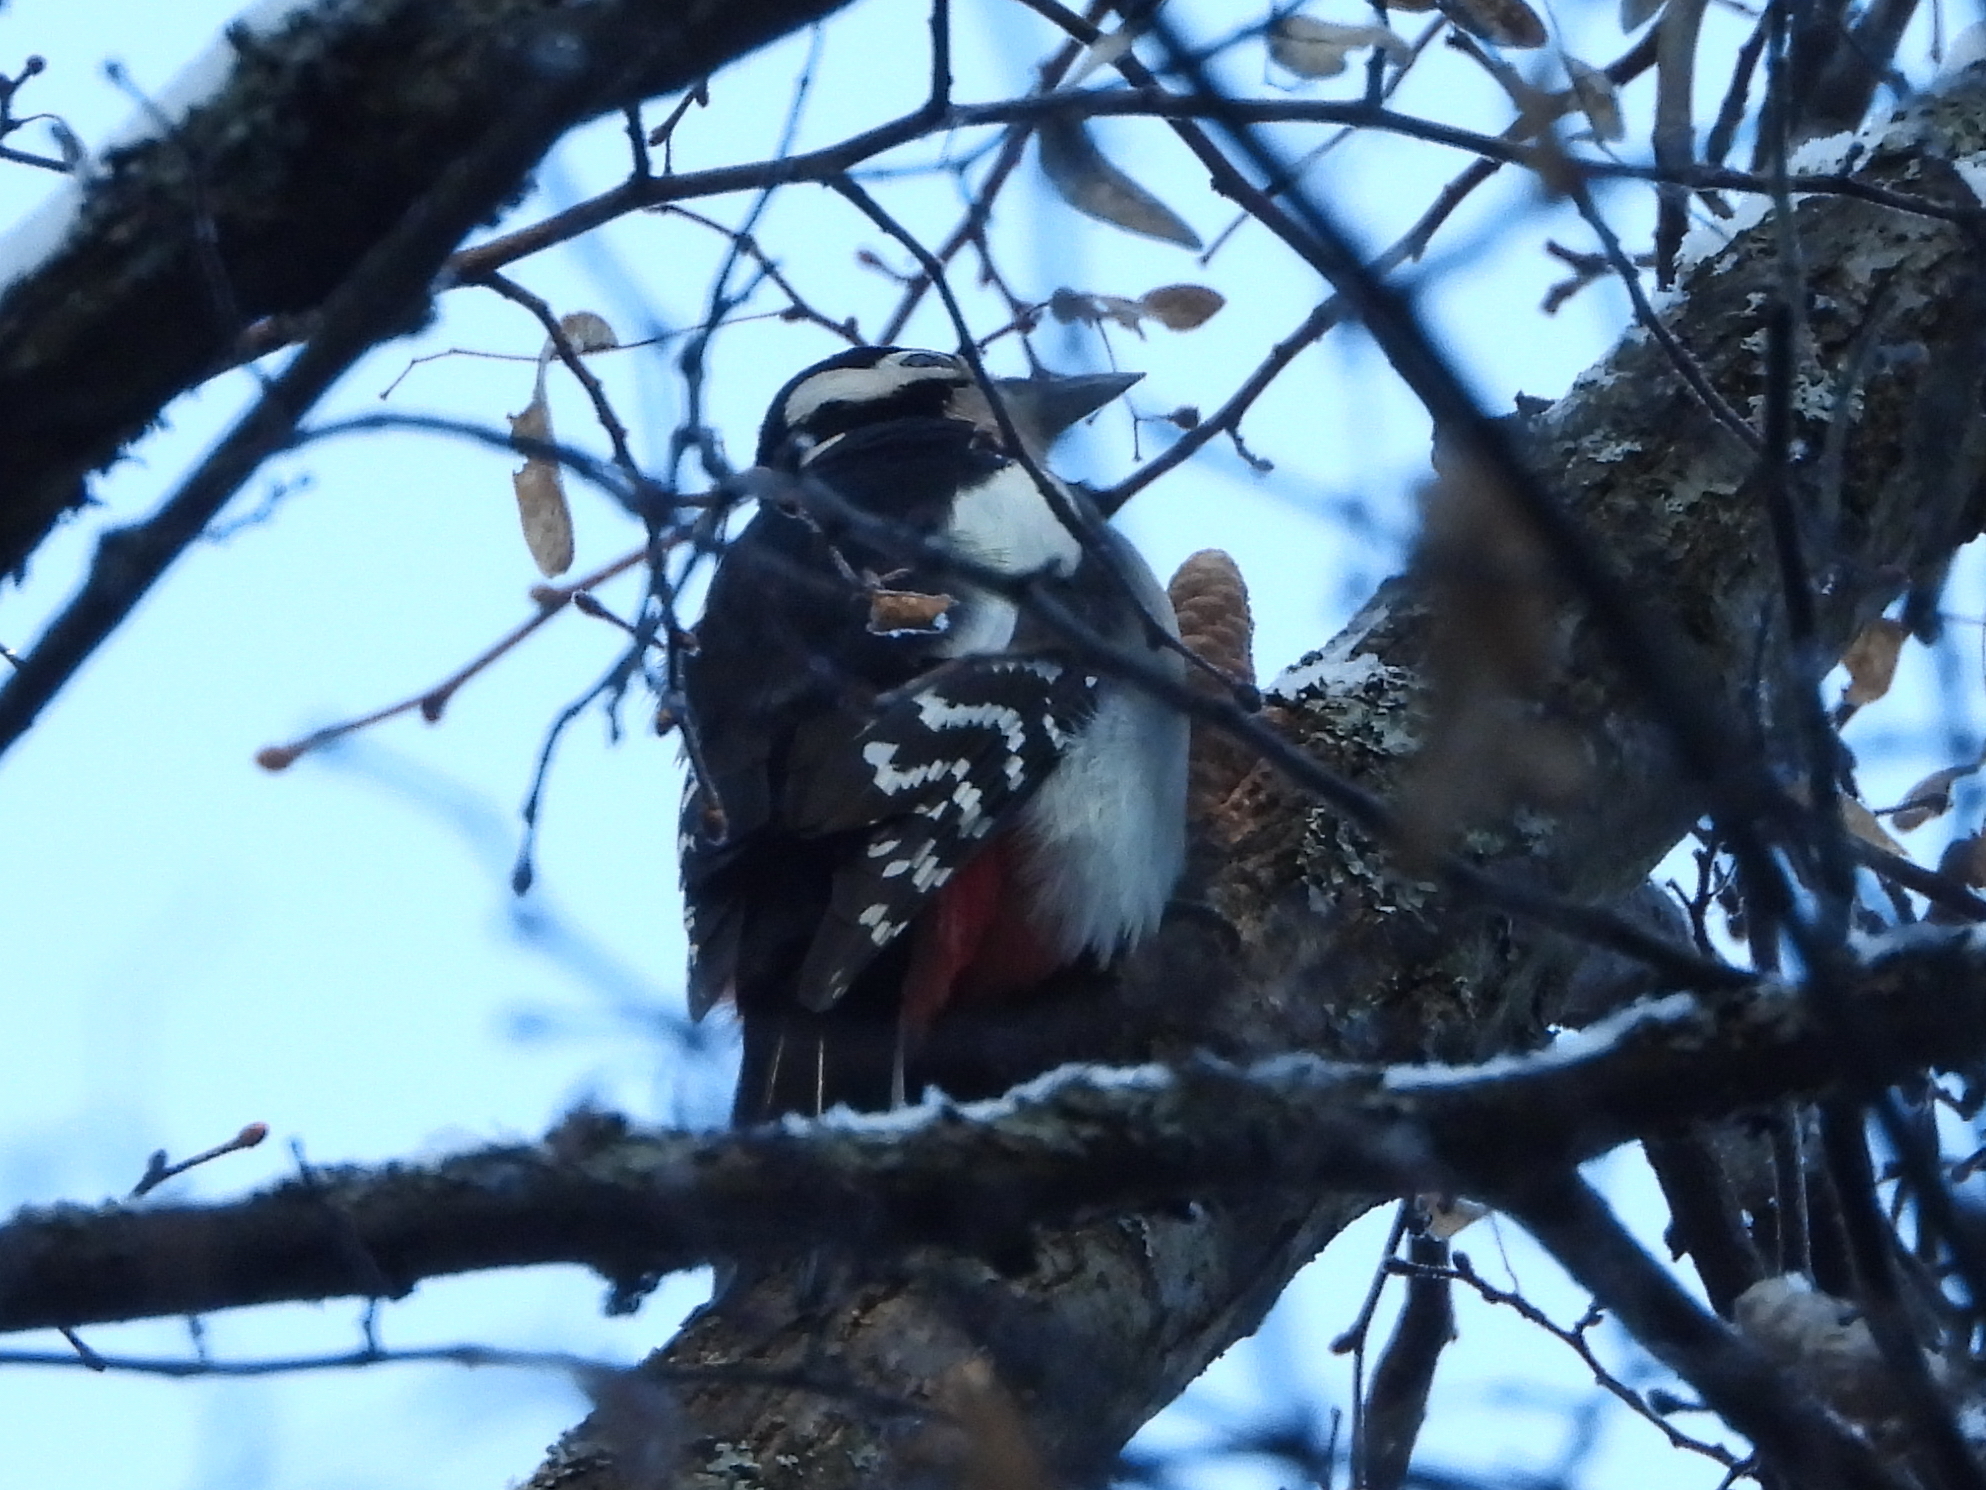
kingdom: Animalia
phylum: Chordata
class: Aves
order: Piciformes
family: Picidae
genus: Dendrocopos
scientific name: Dendrocopos major
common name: Great spotted woodpecker
